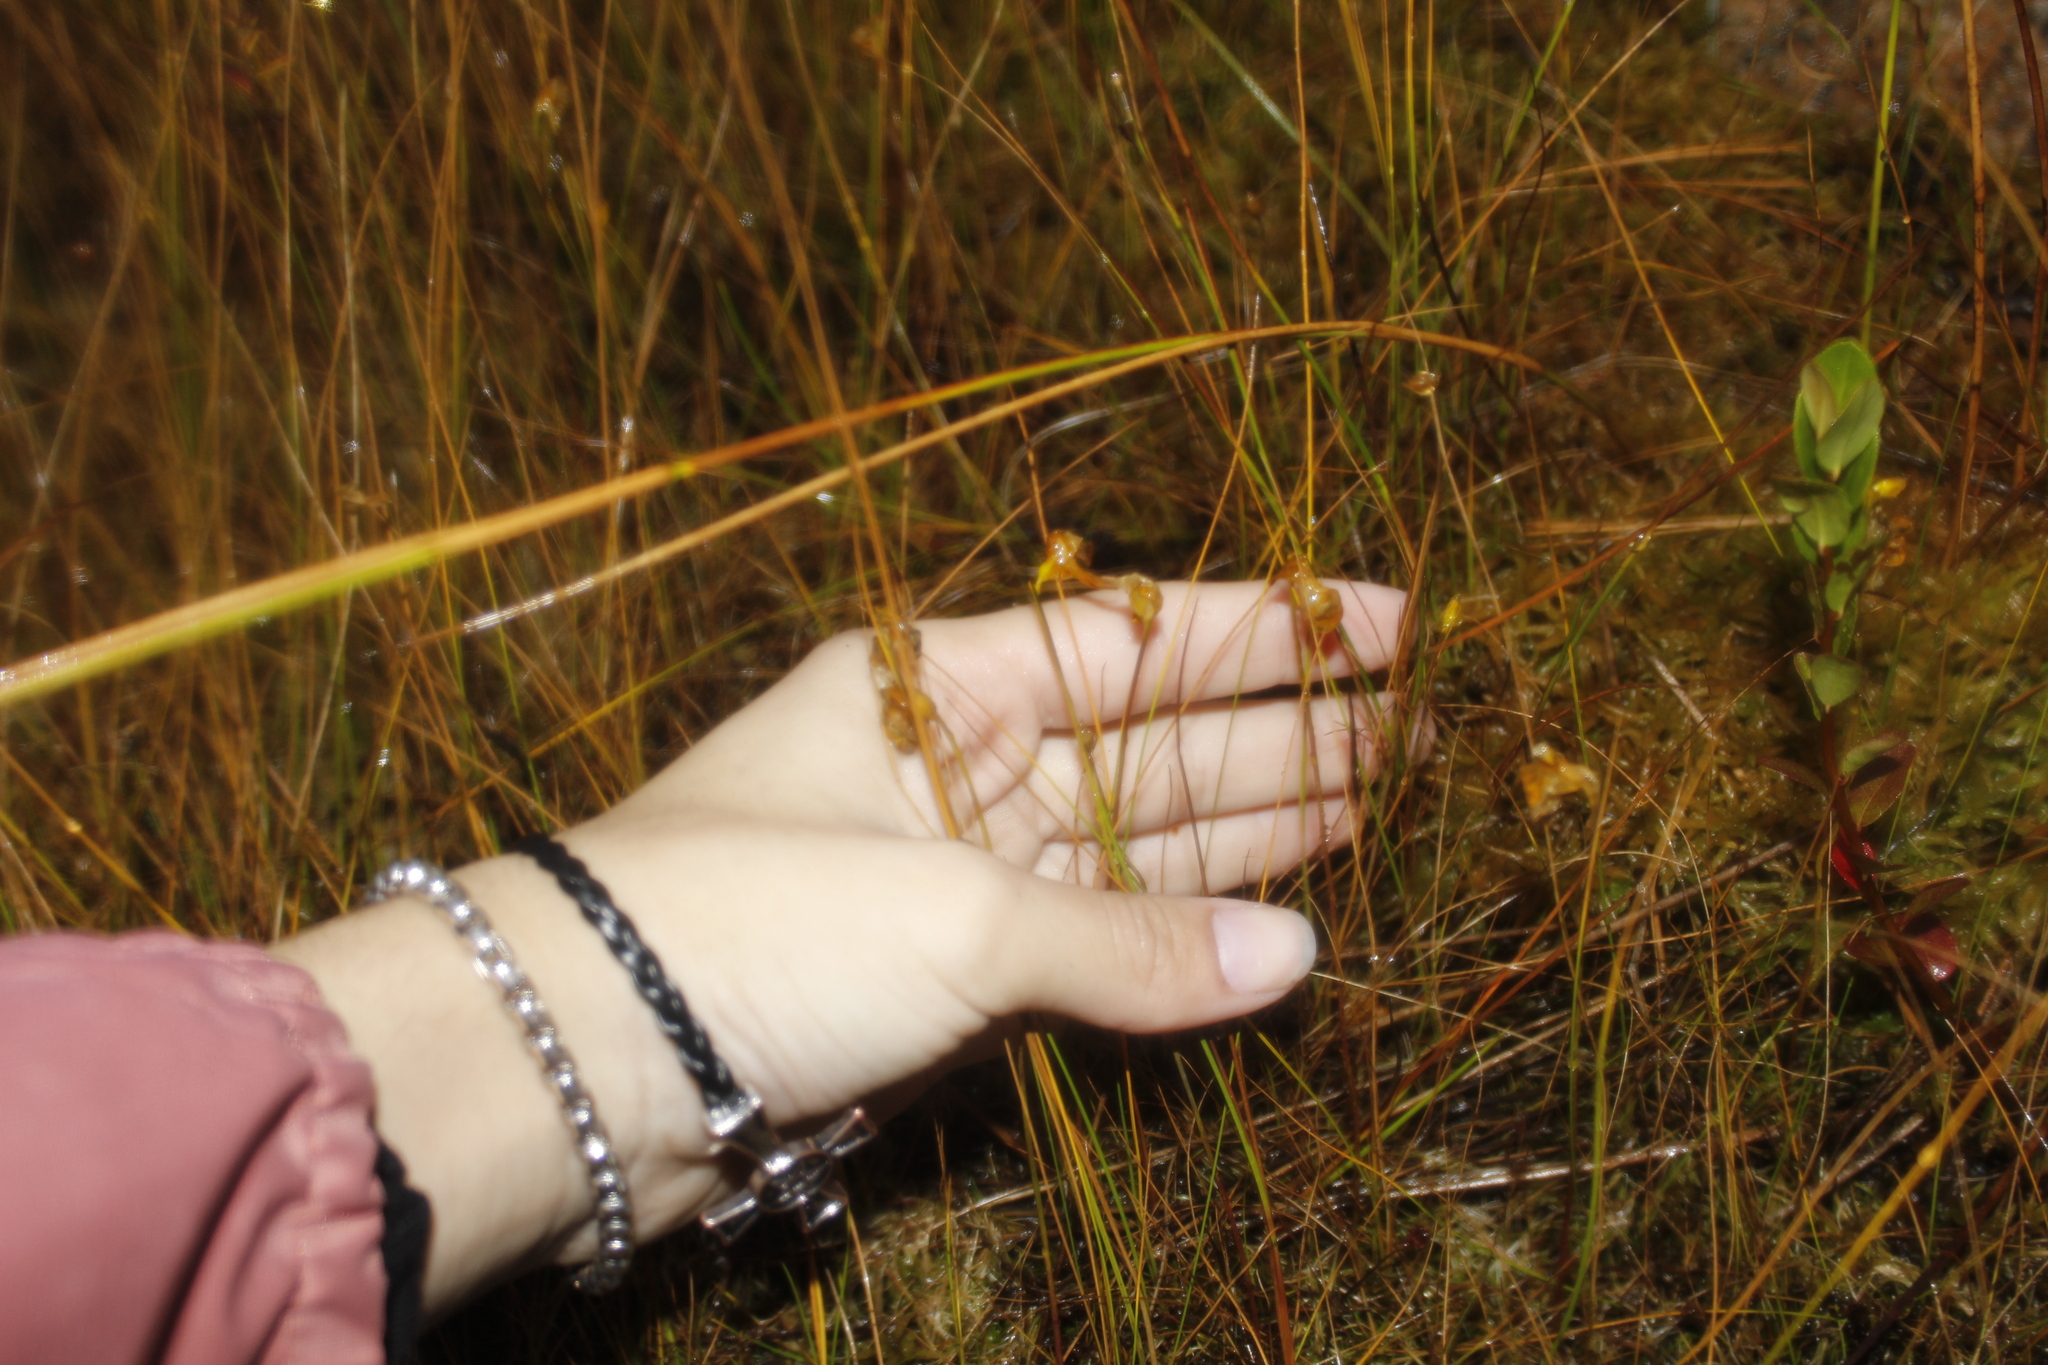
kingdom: Plantae
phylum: Tracheophyta
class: Magnoliopsida
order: Lamiales
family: Lentibulariaceae
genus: Utricularia
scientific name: Utricularia cornuta
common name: Horned bladderwort
